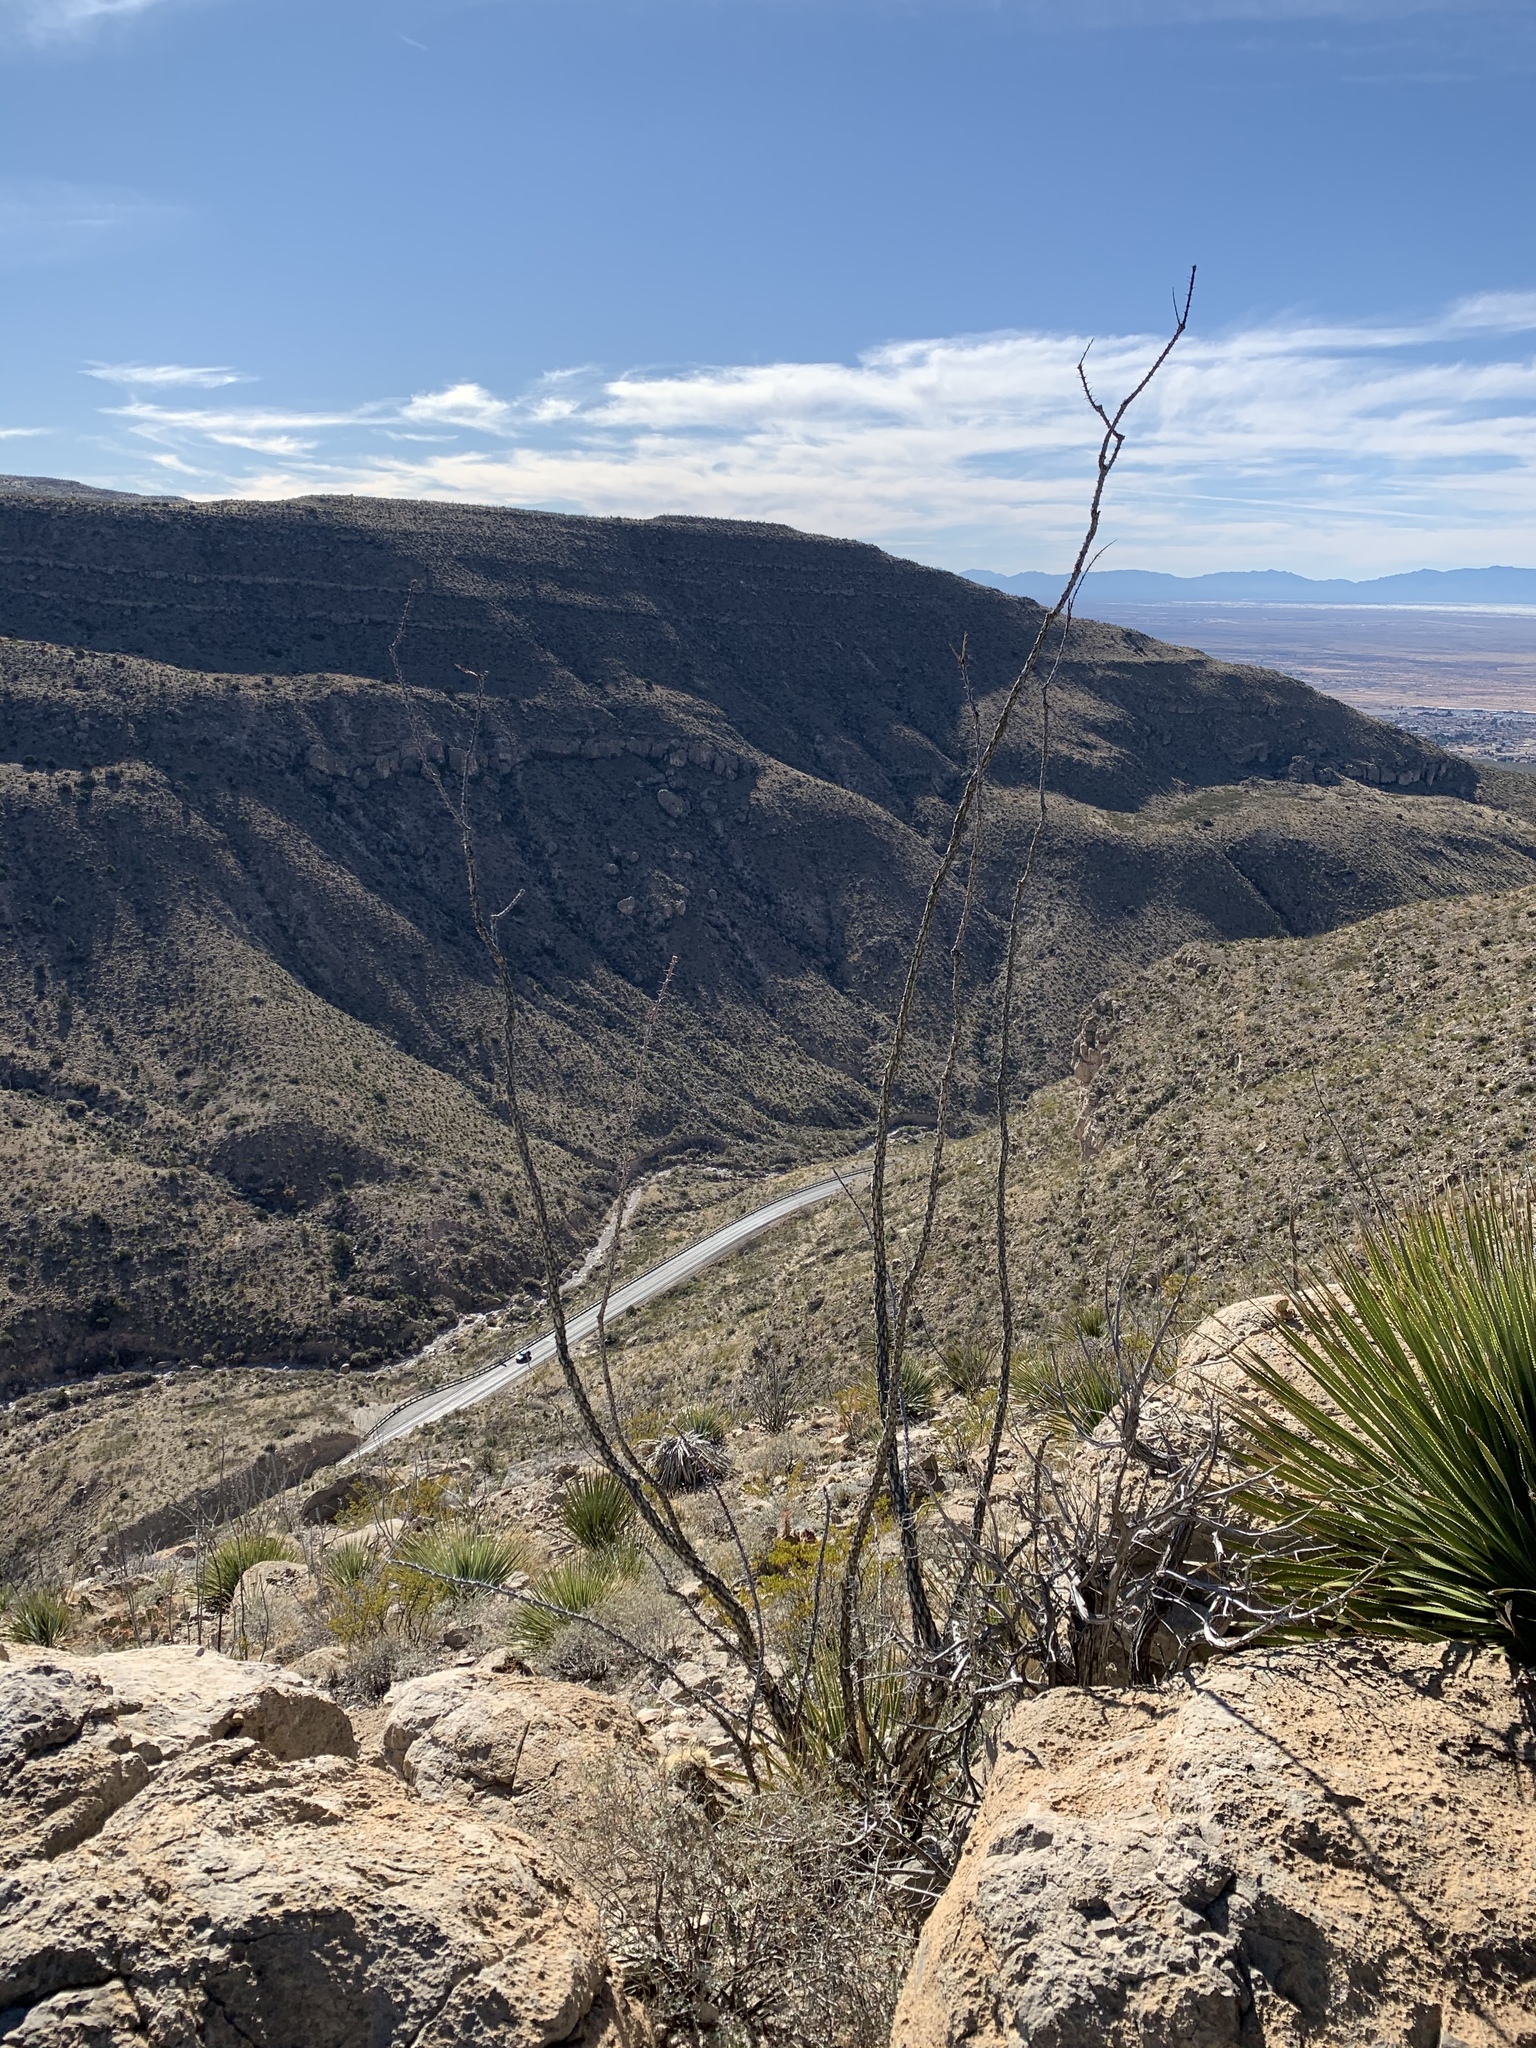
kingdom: Plantae
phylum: Tracheophyta
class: Magnoliopsida
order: Ericales
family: Fouquieriaceae
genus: Fouquieria
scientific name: Fouquieria splendens
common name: Vine-cactus
